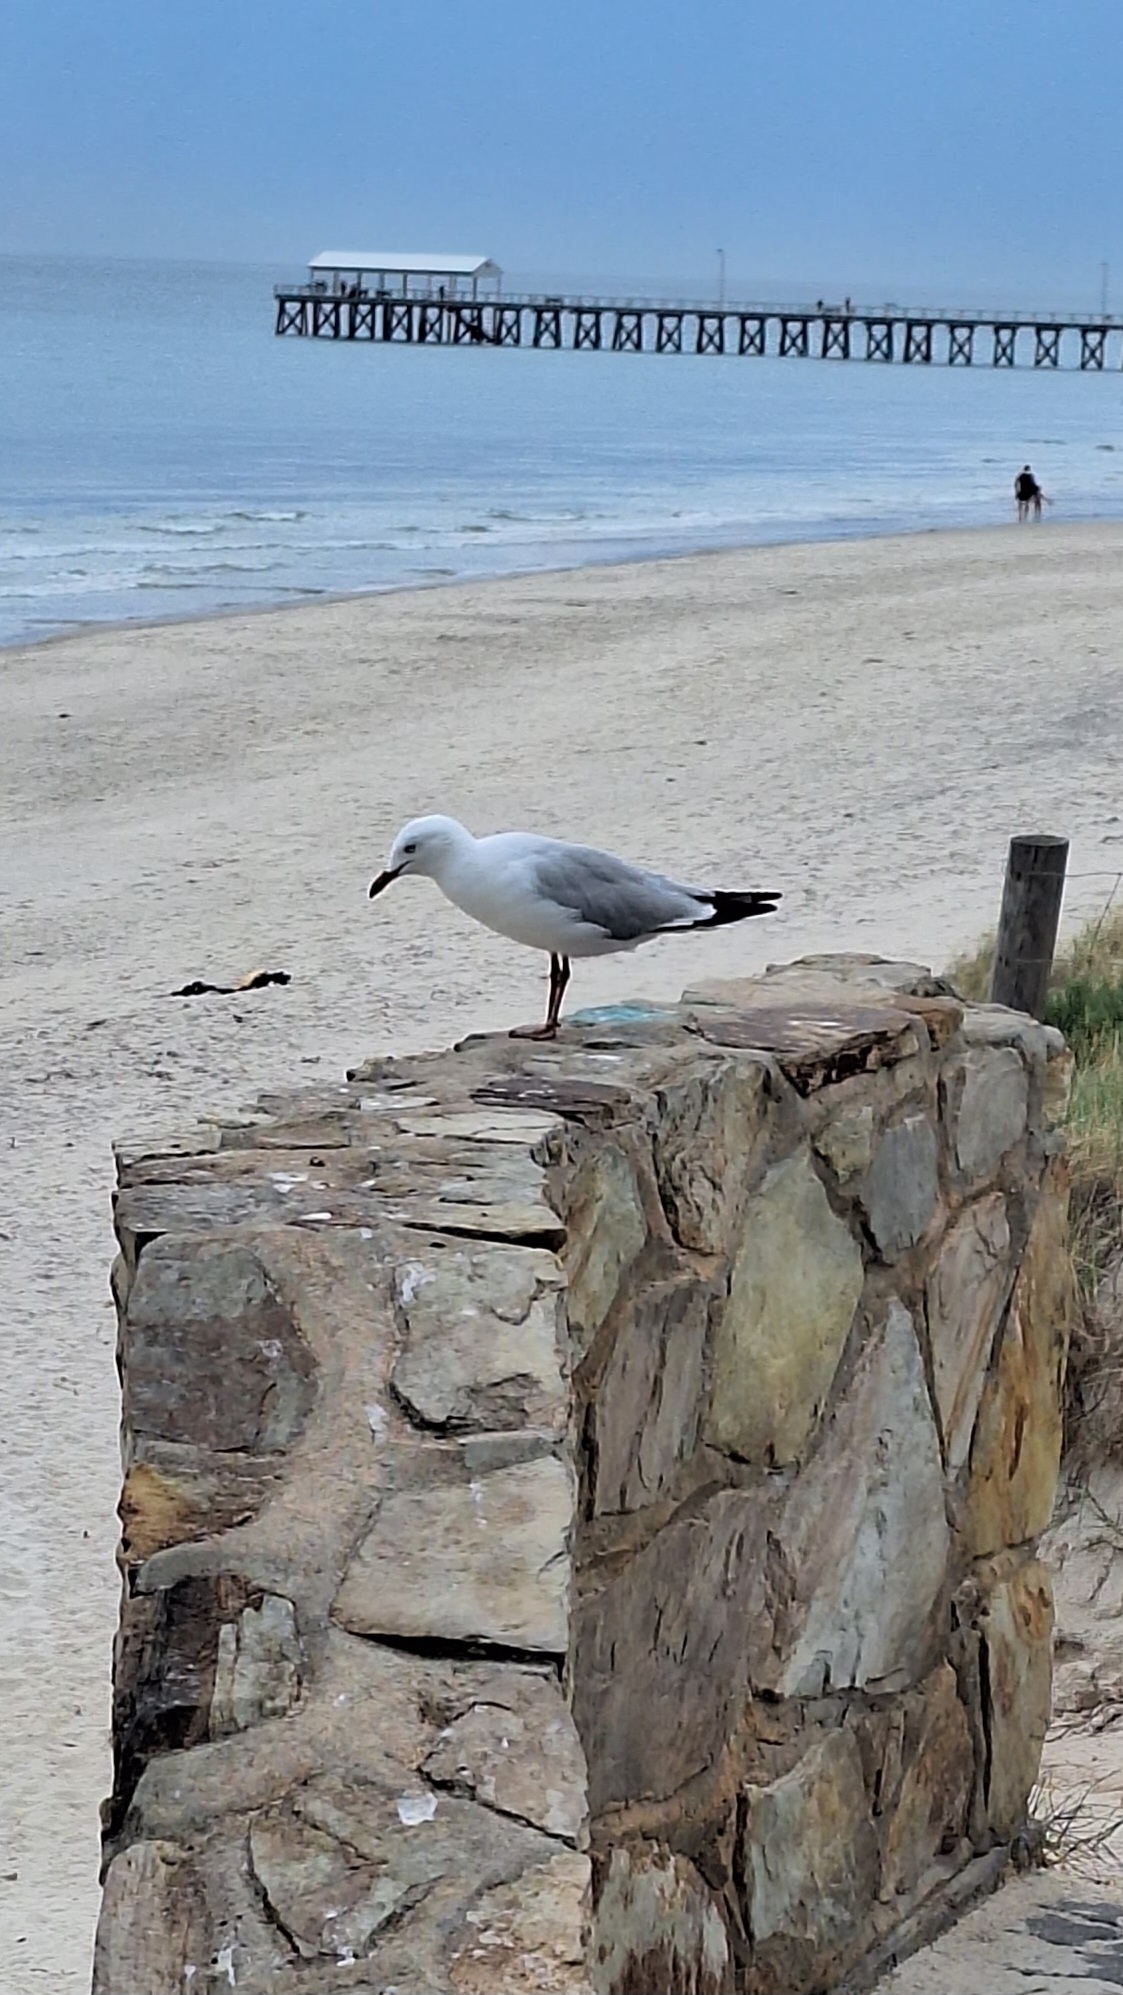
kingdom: Animalia
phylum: Chordata
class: Aves
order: Charadriiformes
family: Laridae
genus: Chroicocephalus
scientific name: Chroicocephalus novaehollandiae
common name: Silver gull
